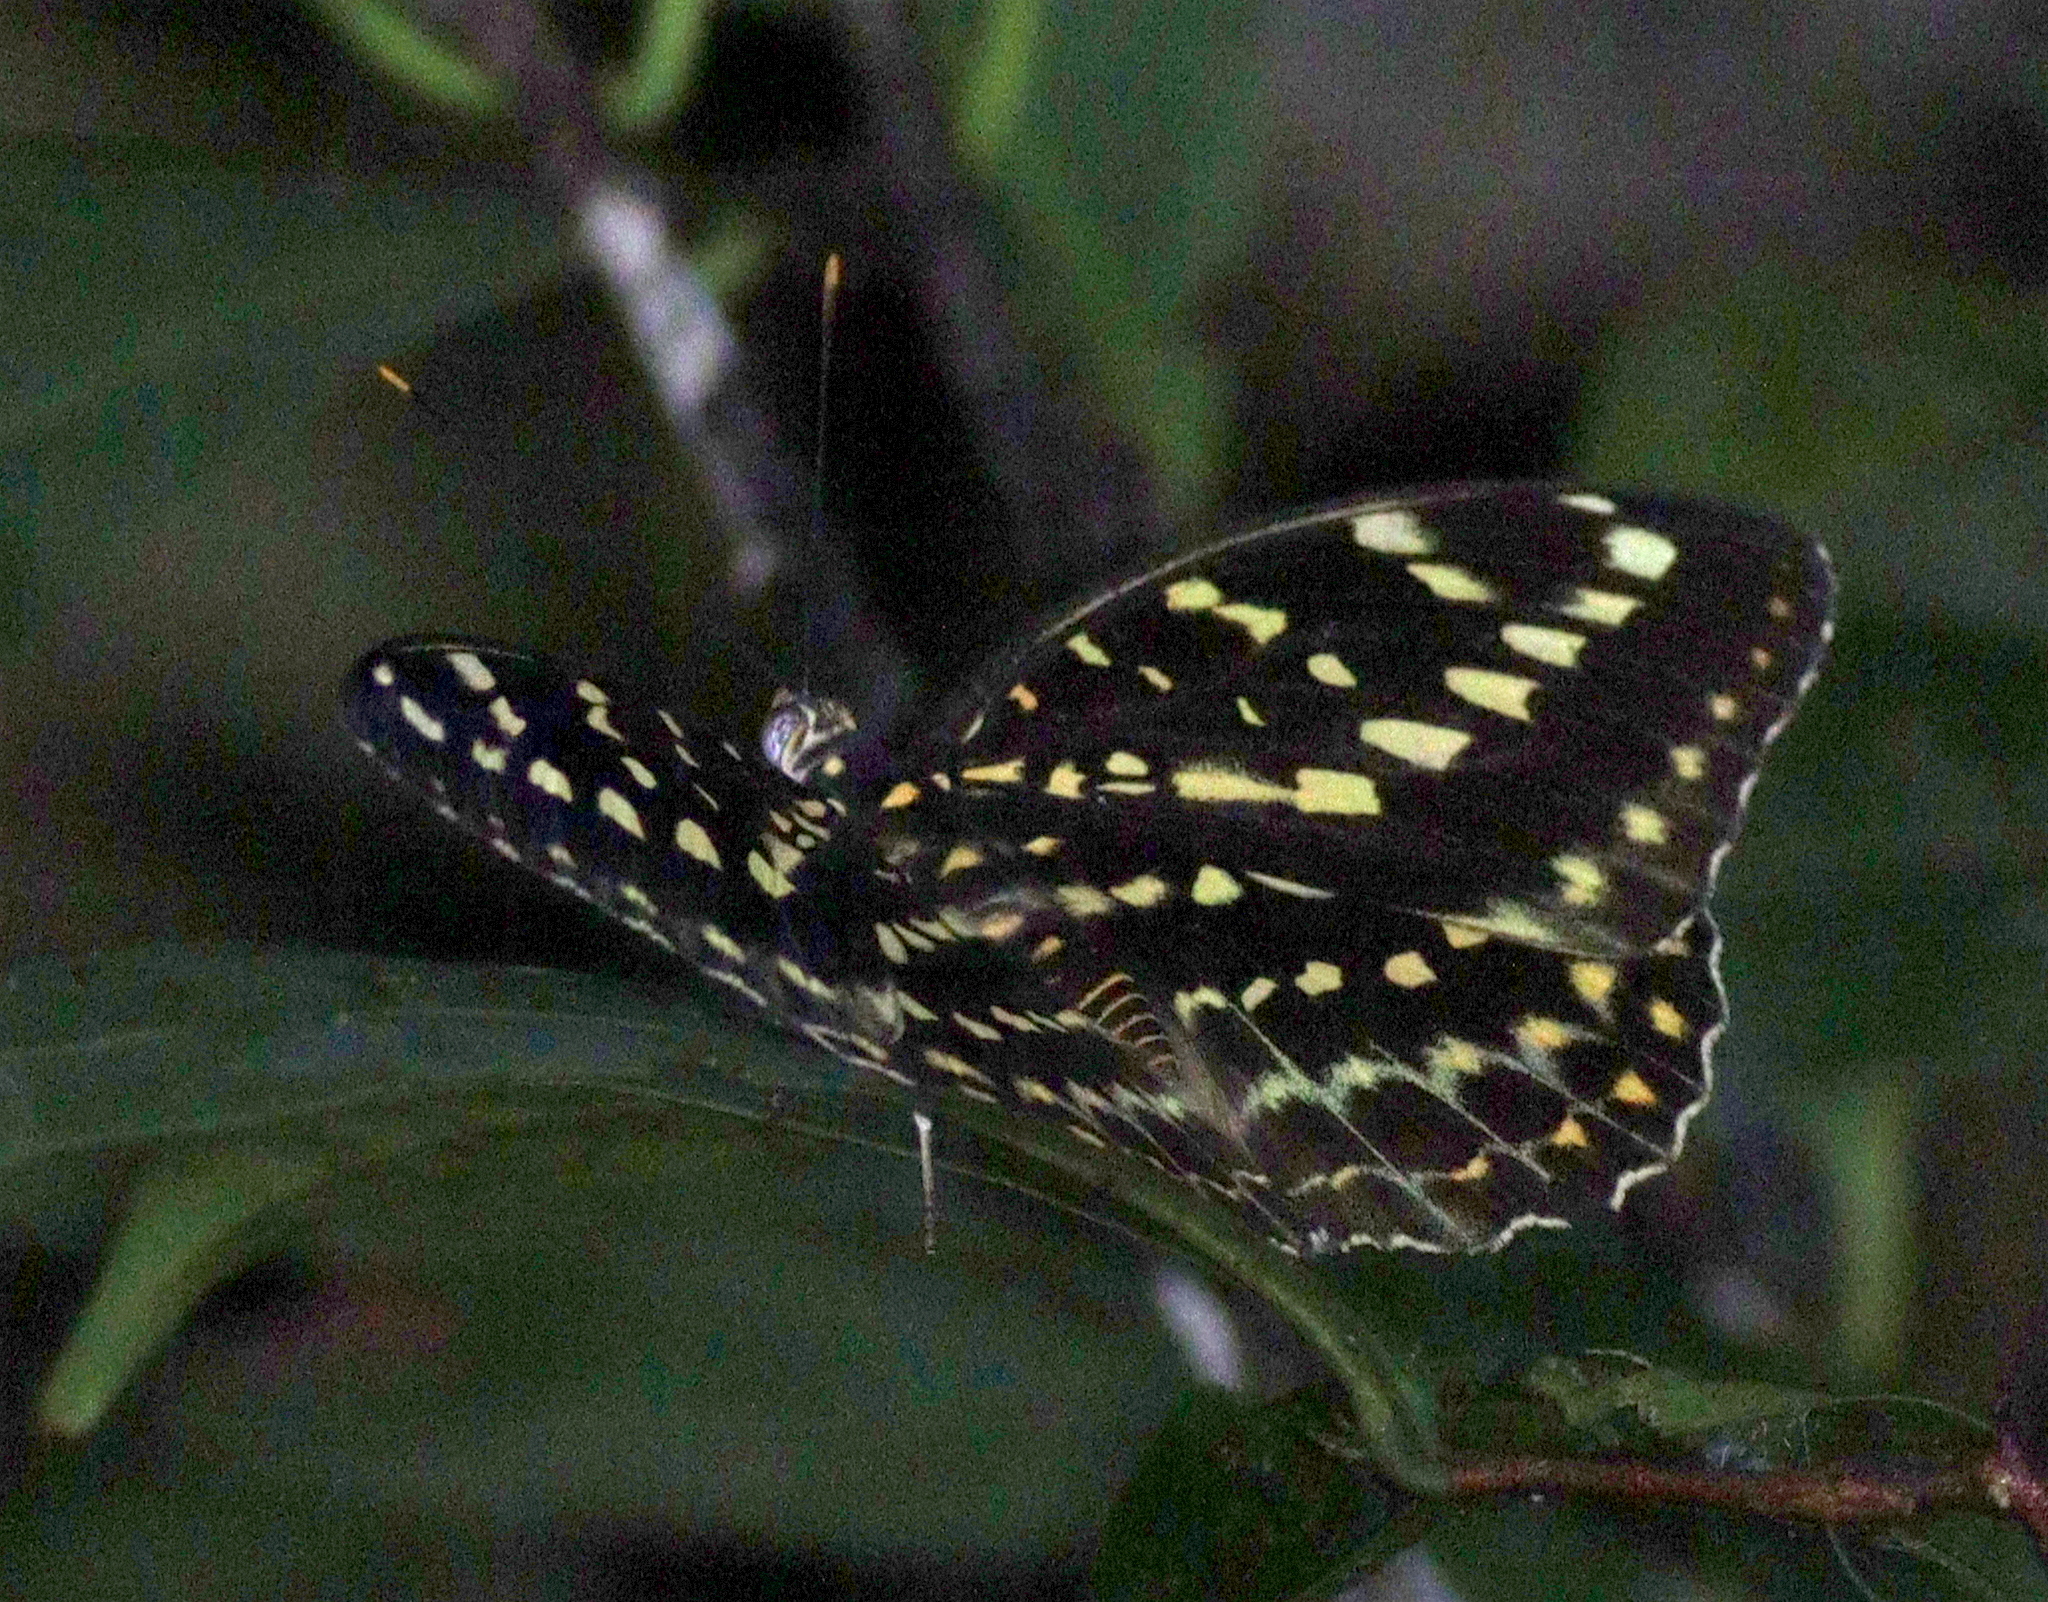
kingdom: Animalia
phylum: Arthropoda
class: Insecta
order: Lepidoptera
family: Nymphalidae
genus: Lexias
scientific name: Lexias pardalis
